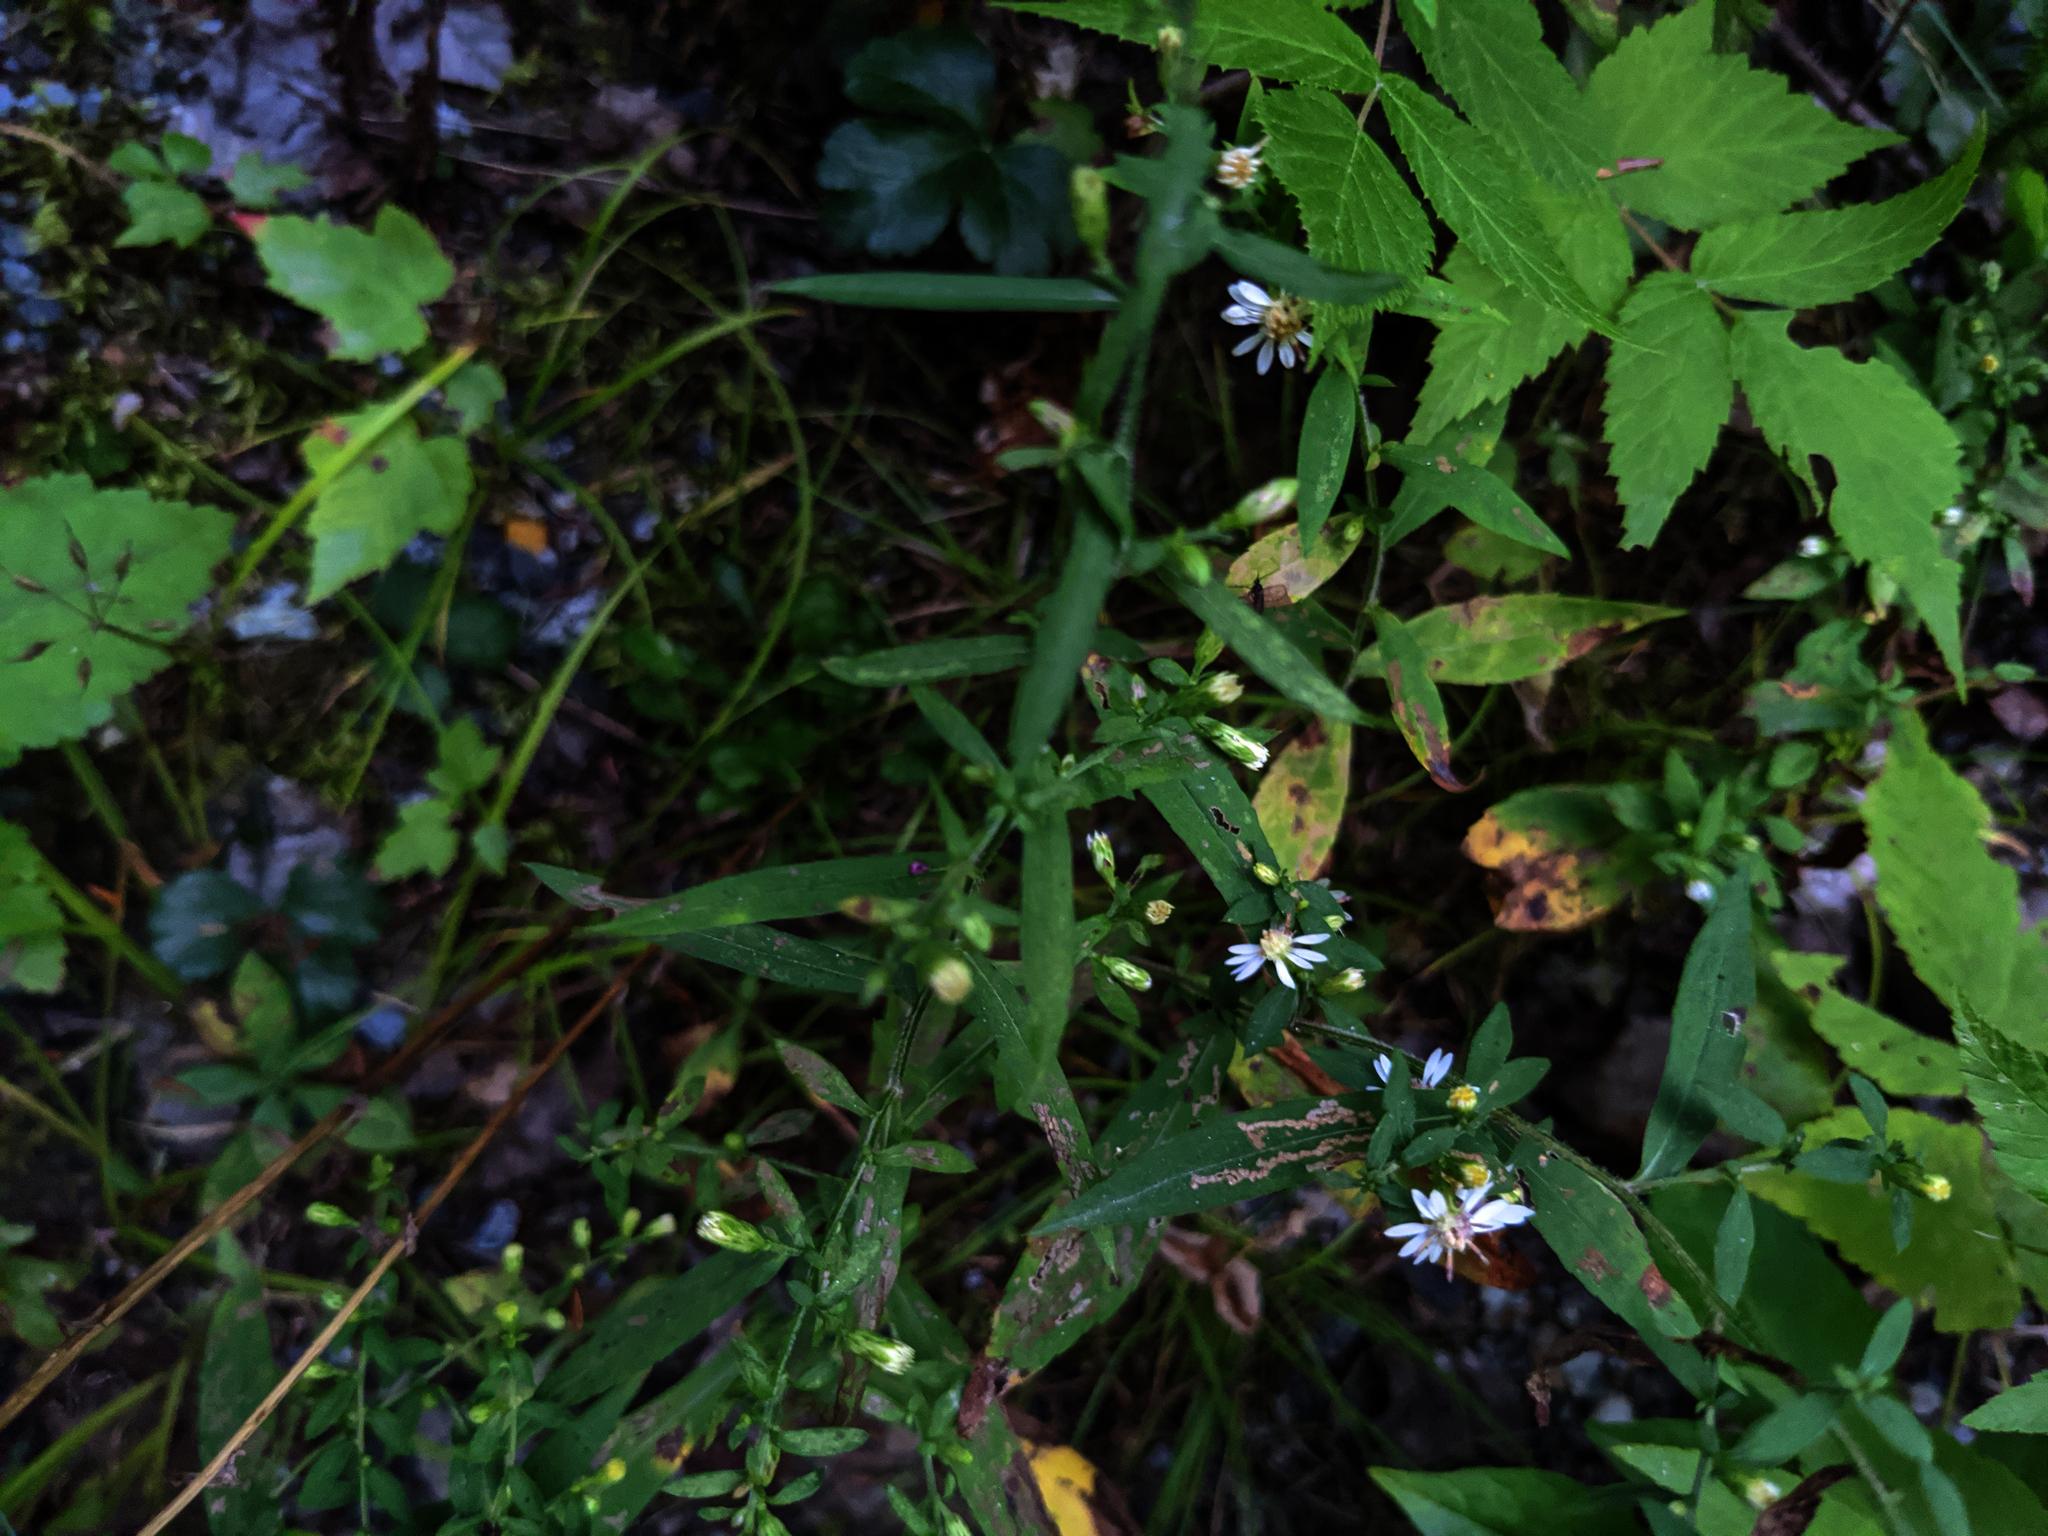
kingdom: Plantae
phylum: Tracheophyta
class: Magnoliopsida
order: Asterales
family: Asteraceae
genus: Symphyotrichum
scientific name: Symphyotrichum lateriflorum
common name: Calico aster
